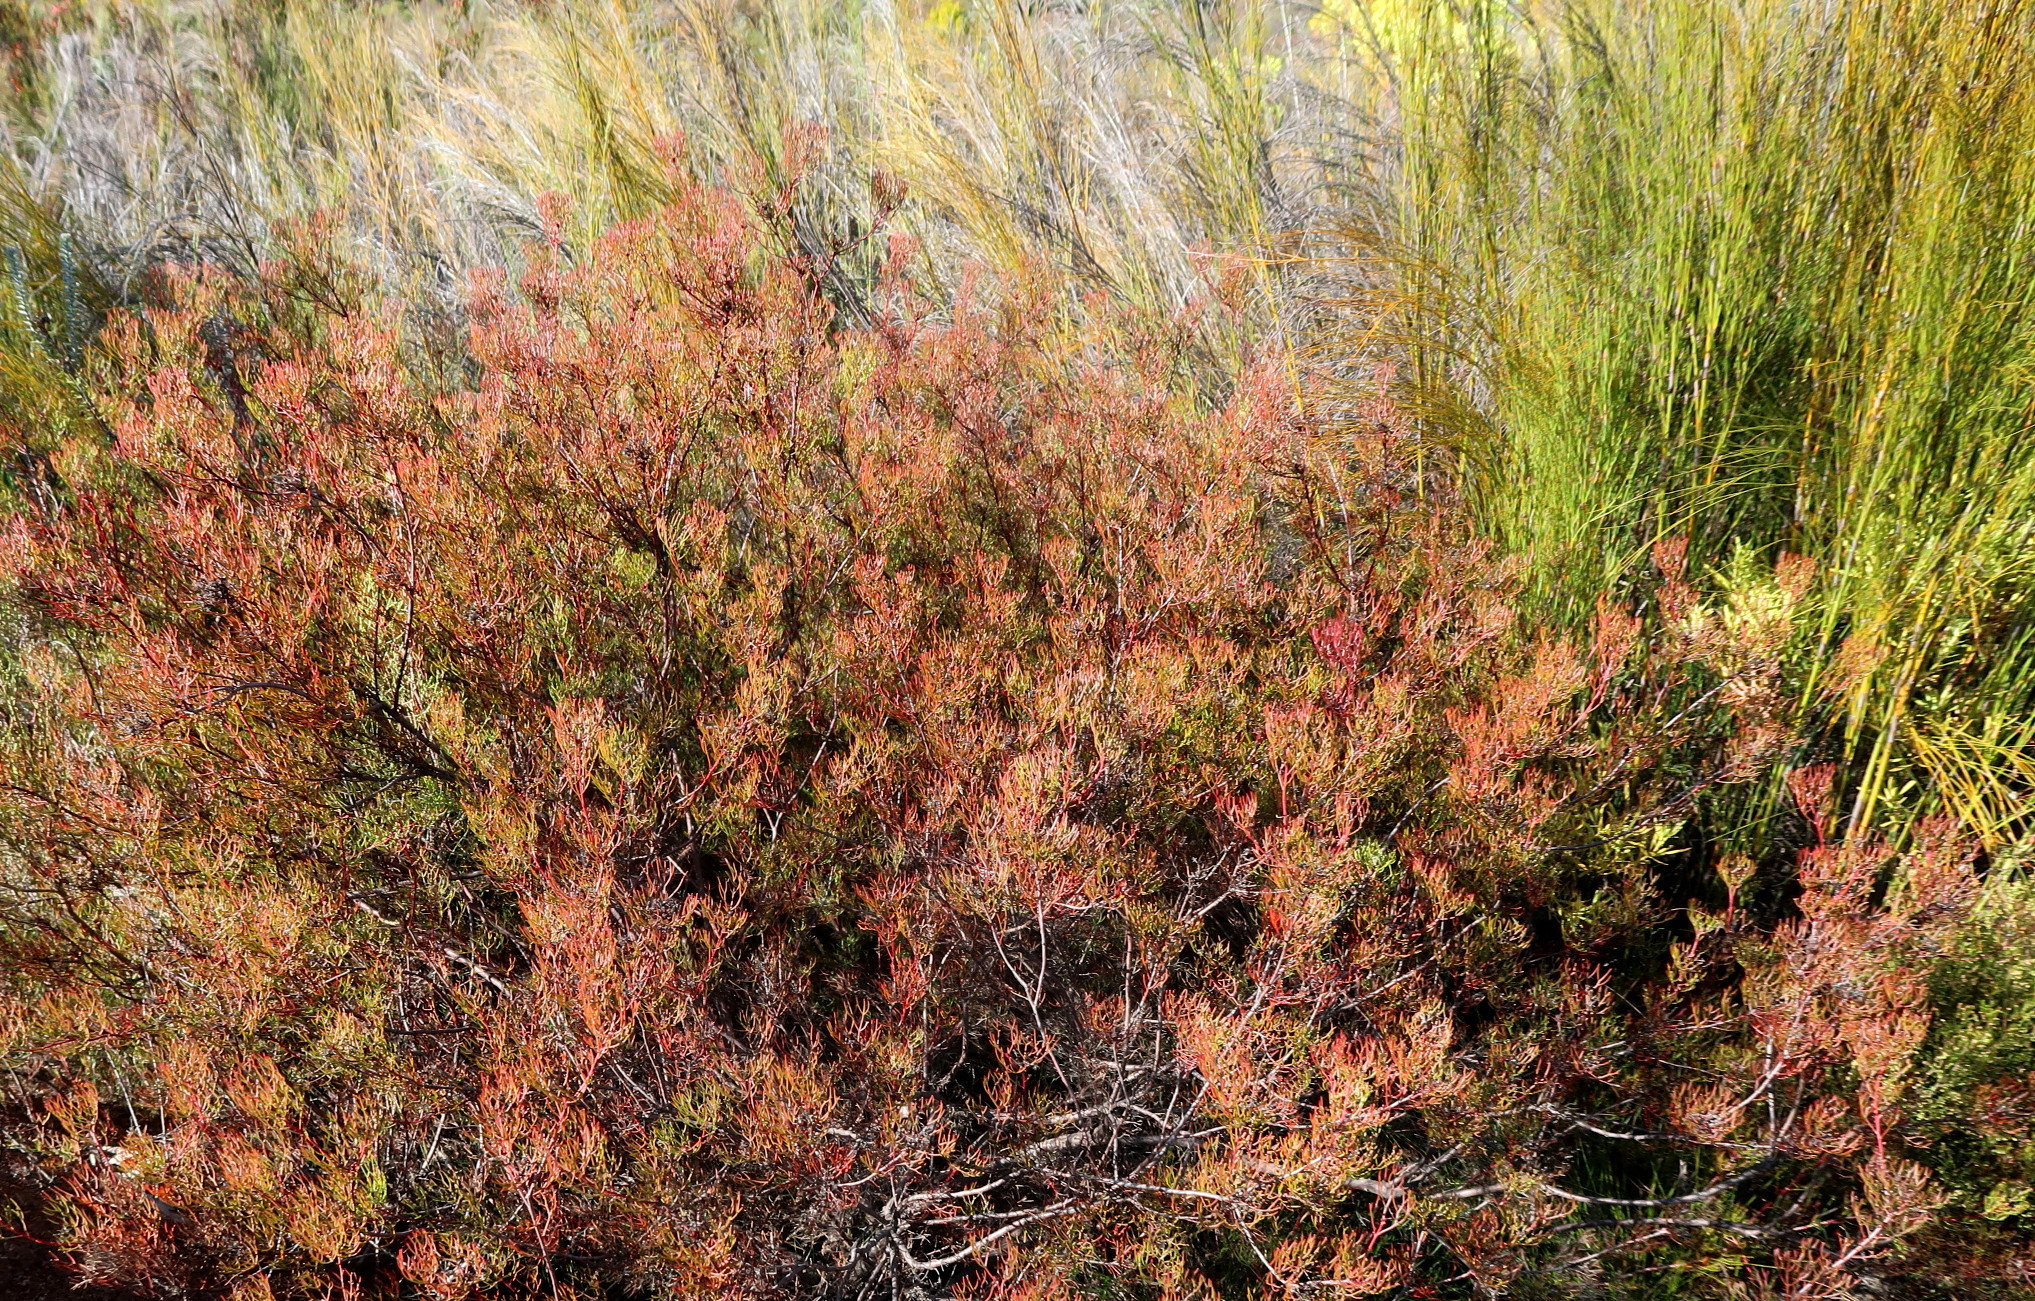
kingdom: Plantae
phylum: Tracheophyta
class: Magnoliopsida
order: Proteales
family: Proteaceae
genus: Serruria
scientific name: Serruria fasciflora
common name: Common pin spiderhead
